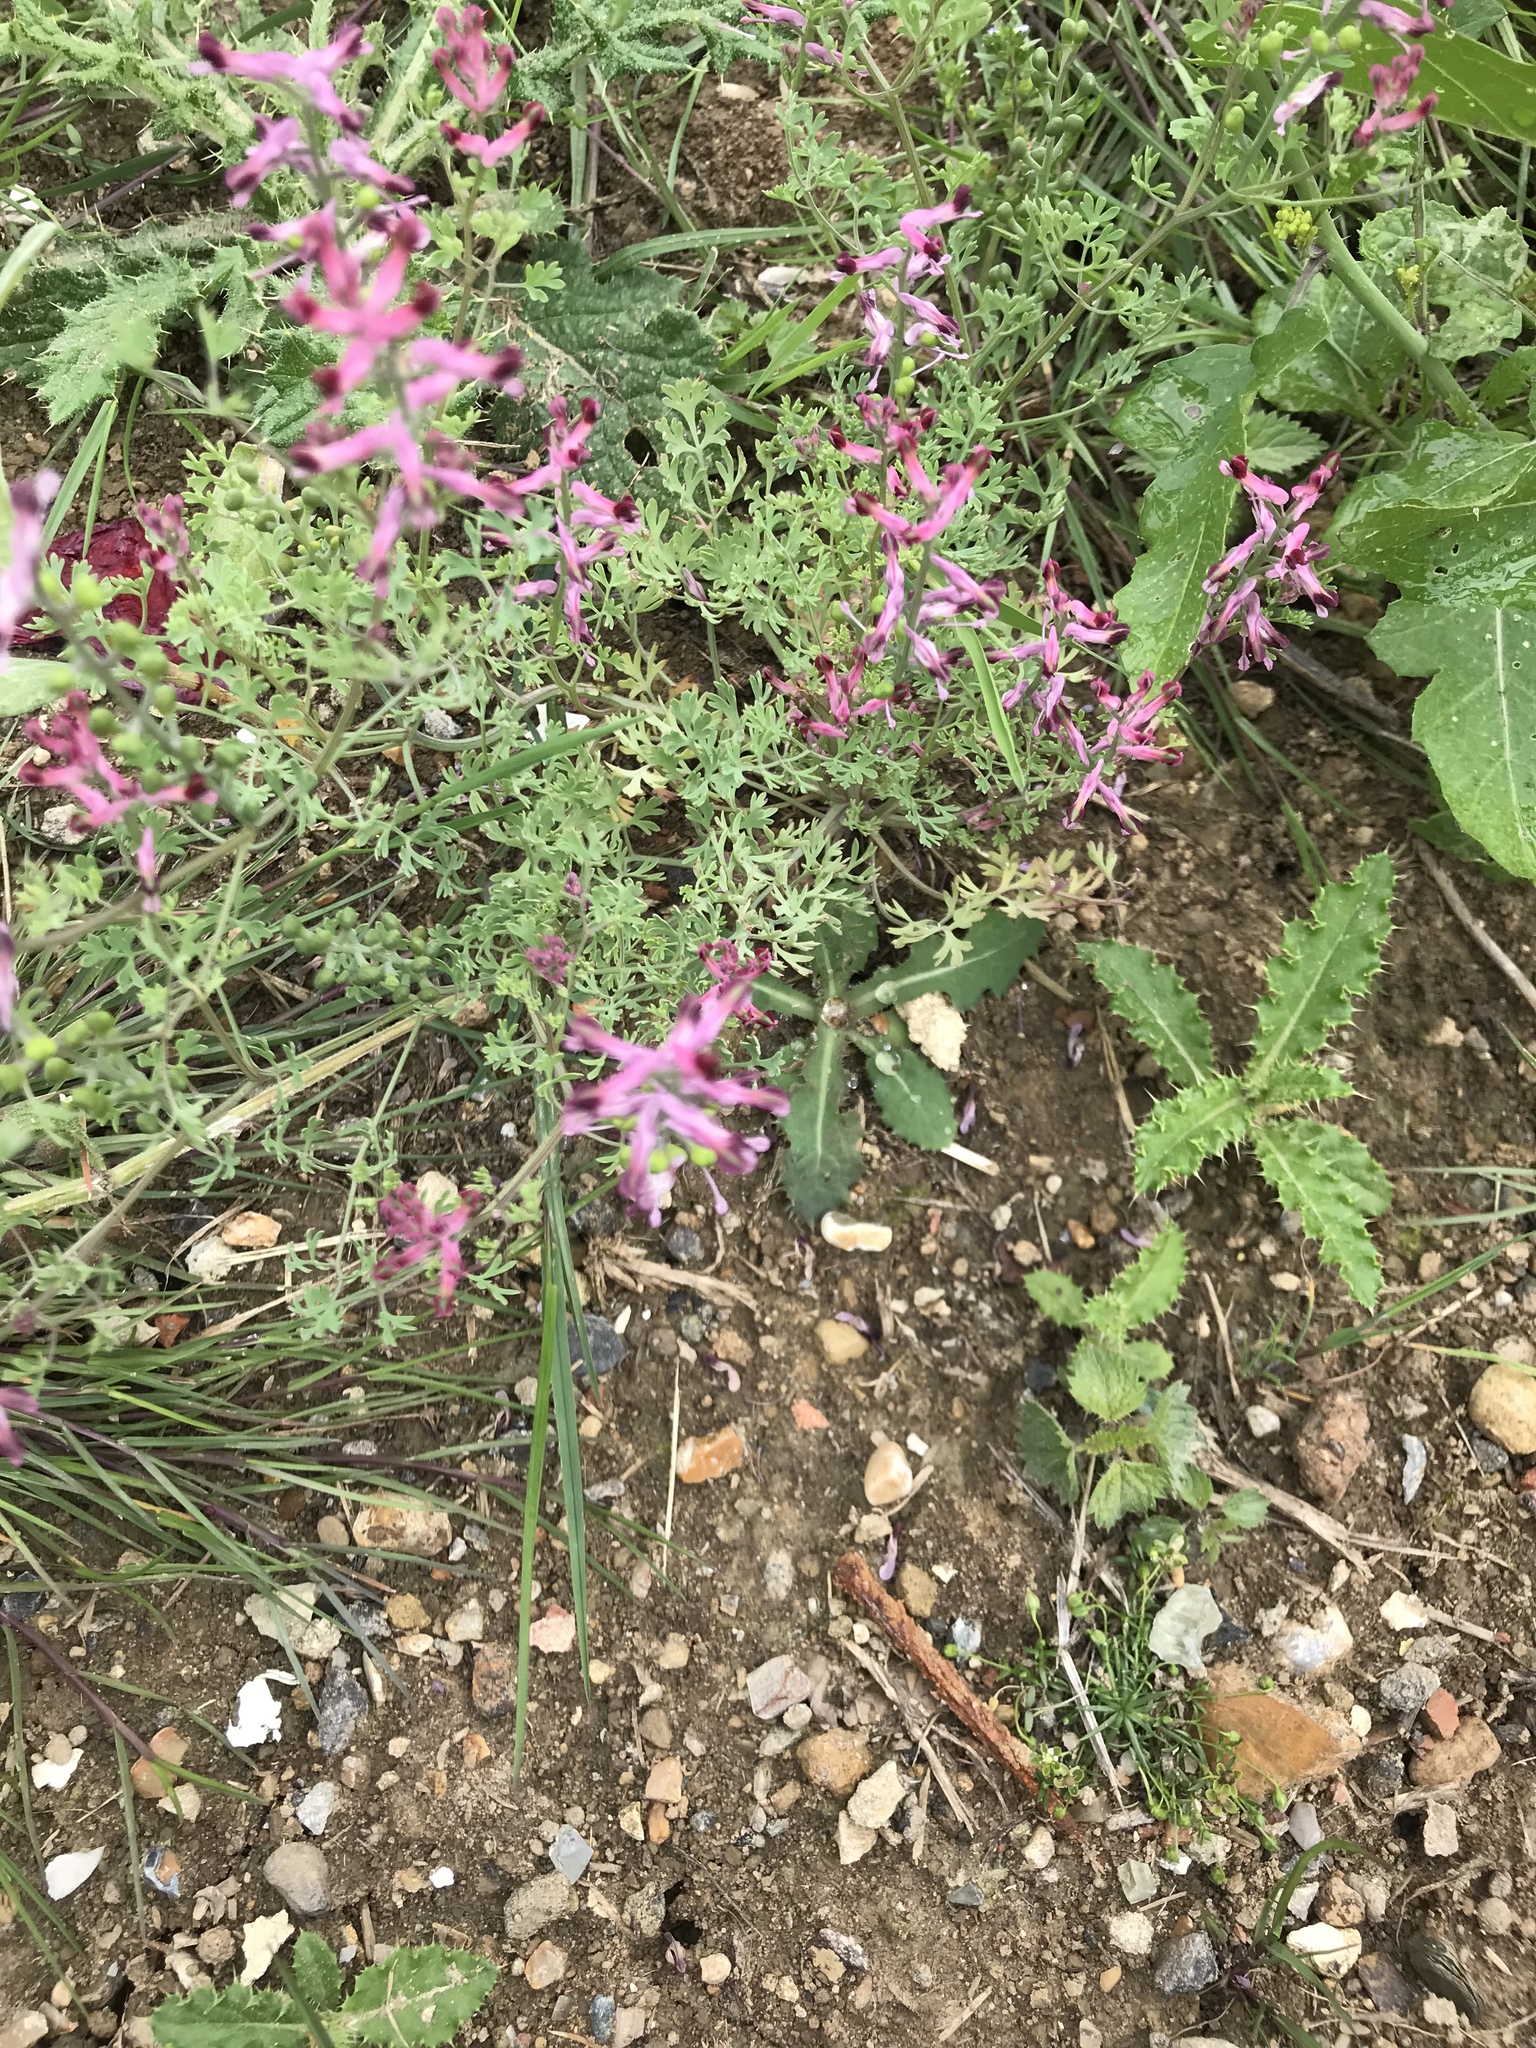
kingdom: Plantae
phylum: Tracheophyta
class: Magnoliopsida
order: Ranunculales
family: Papaveraceae
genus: Fumaria
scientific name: Fumaria officinalis
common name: Common fumitory
